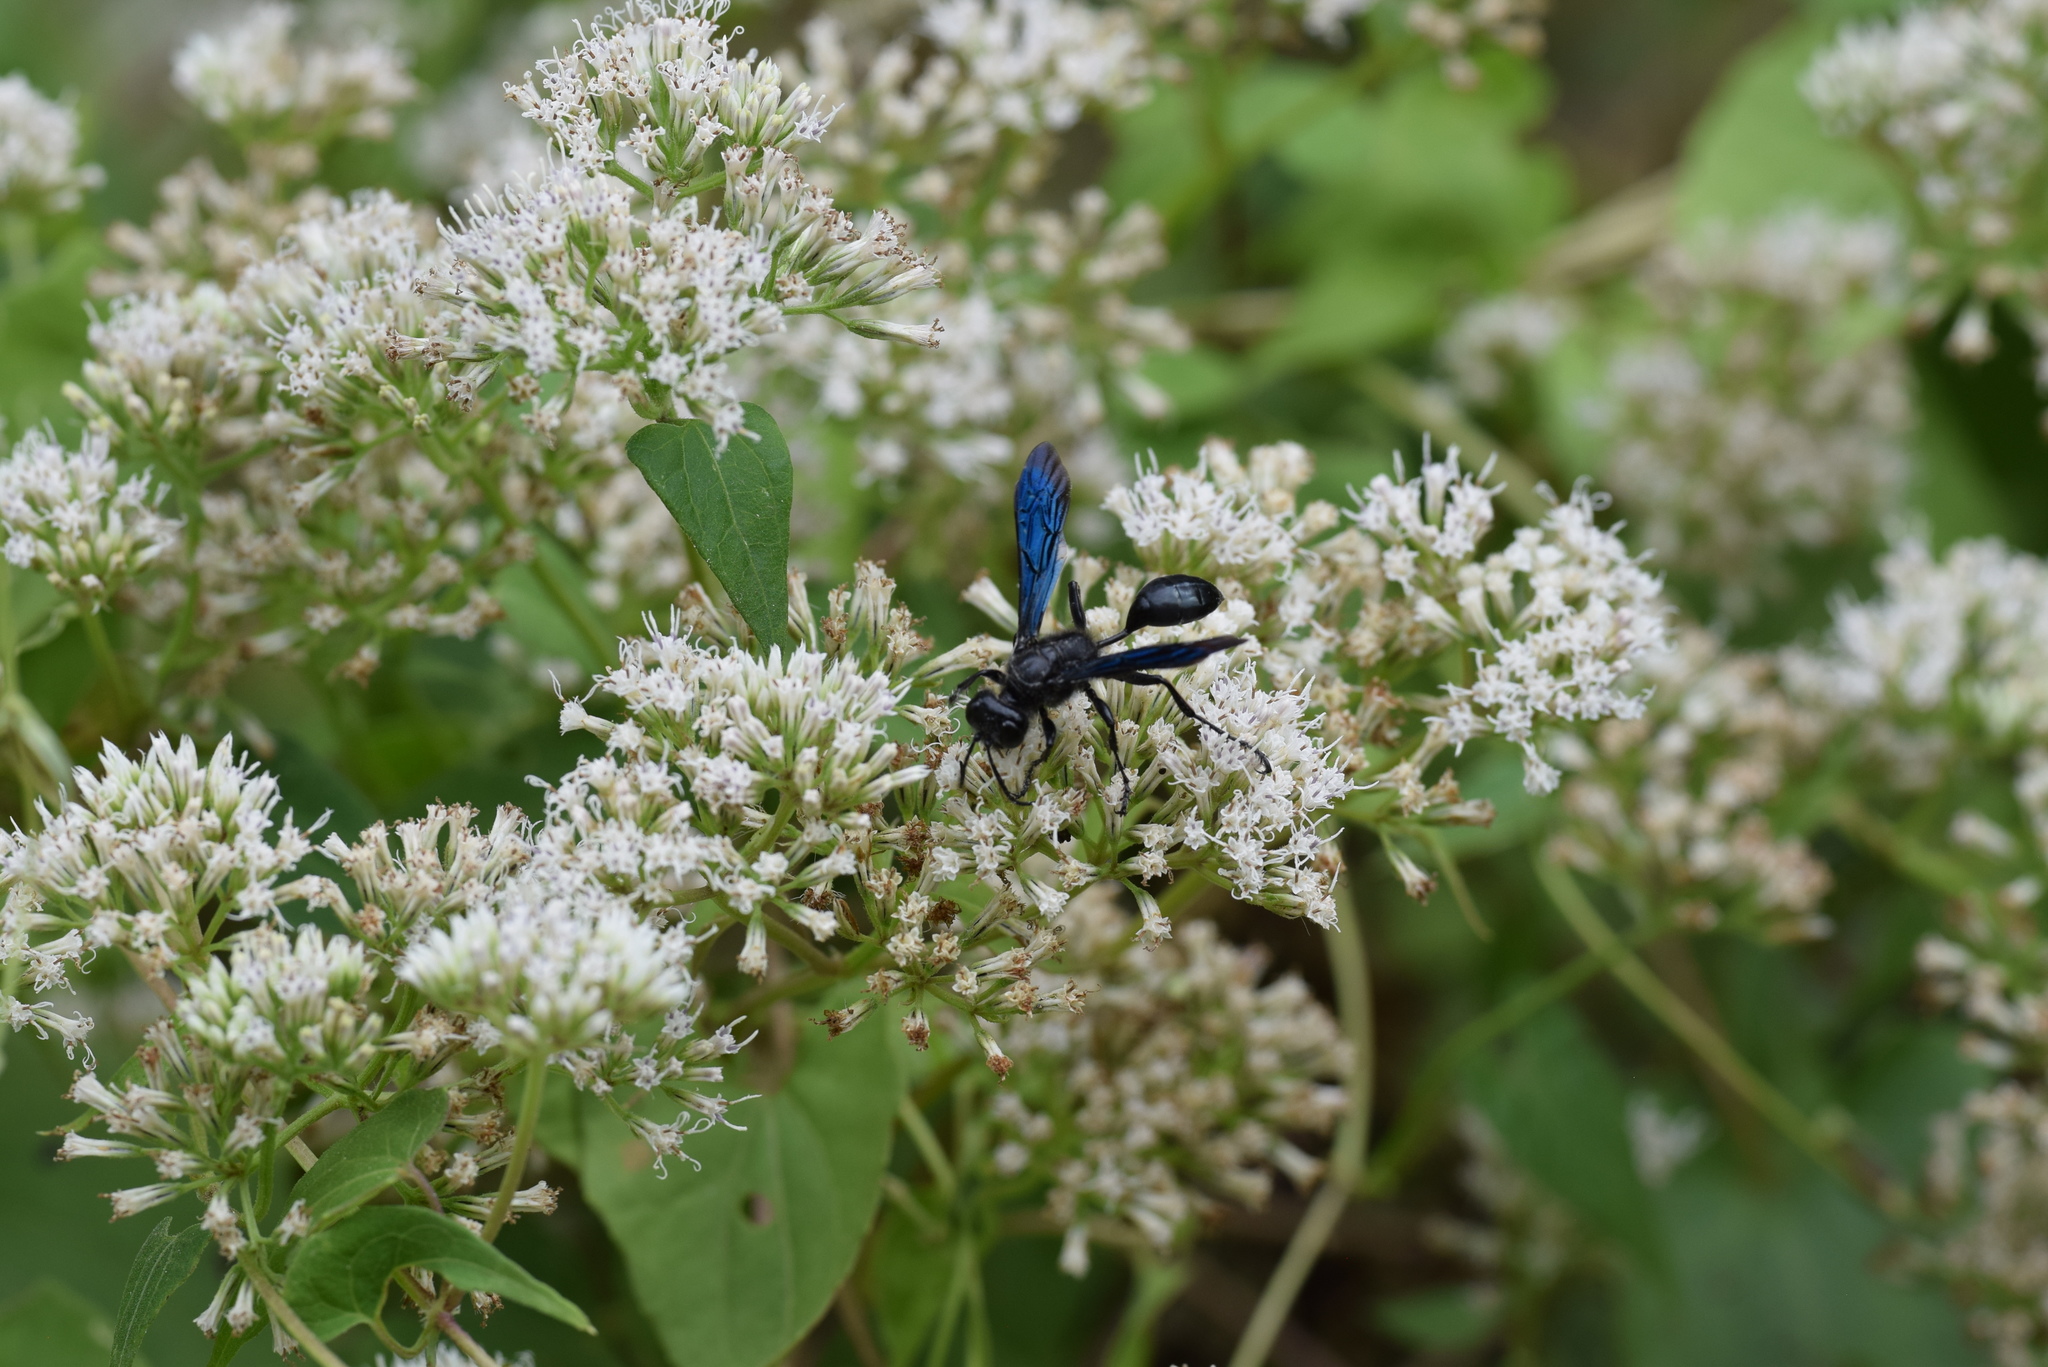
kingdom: Animalia
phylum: Arthropoda
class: Insecta
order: Hymenoptera
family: Sphecidae
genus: Isodontia
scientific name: Isodontia philadelphica
